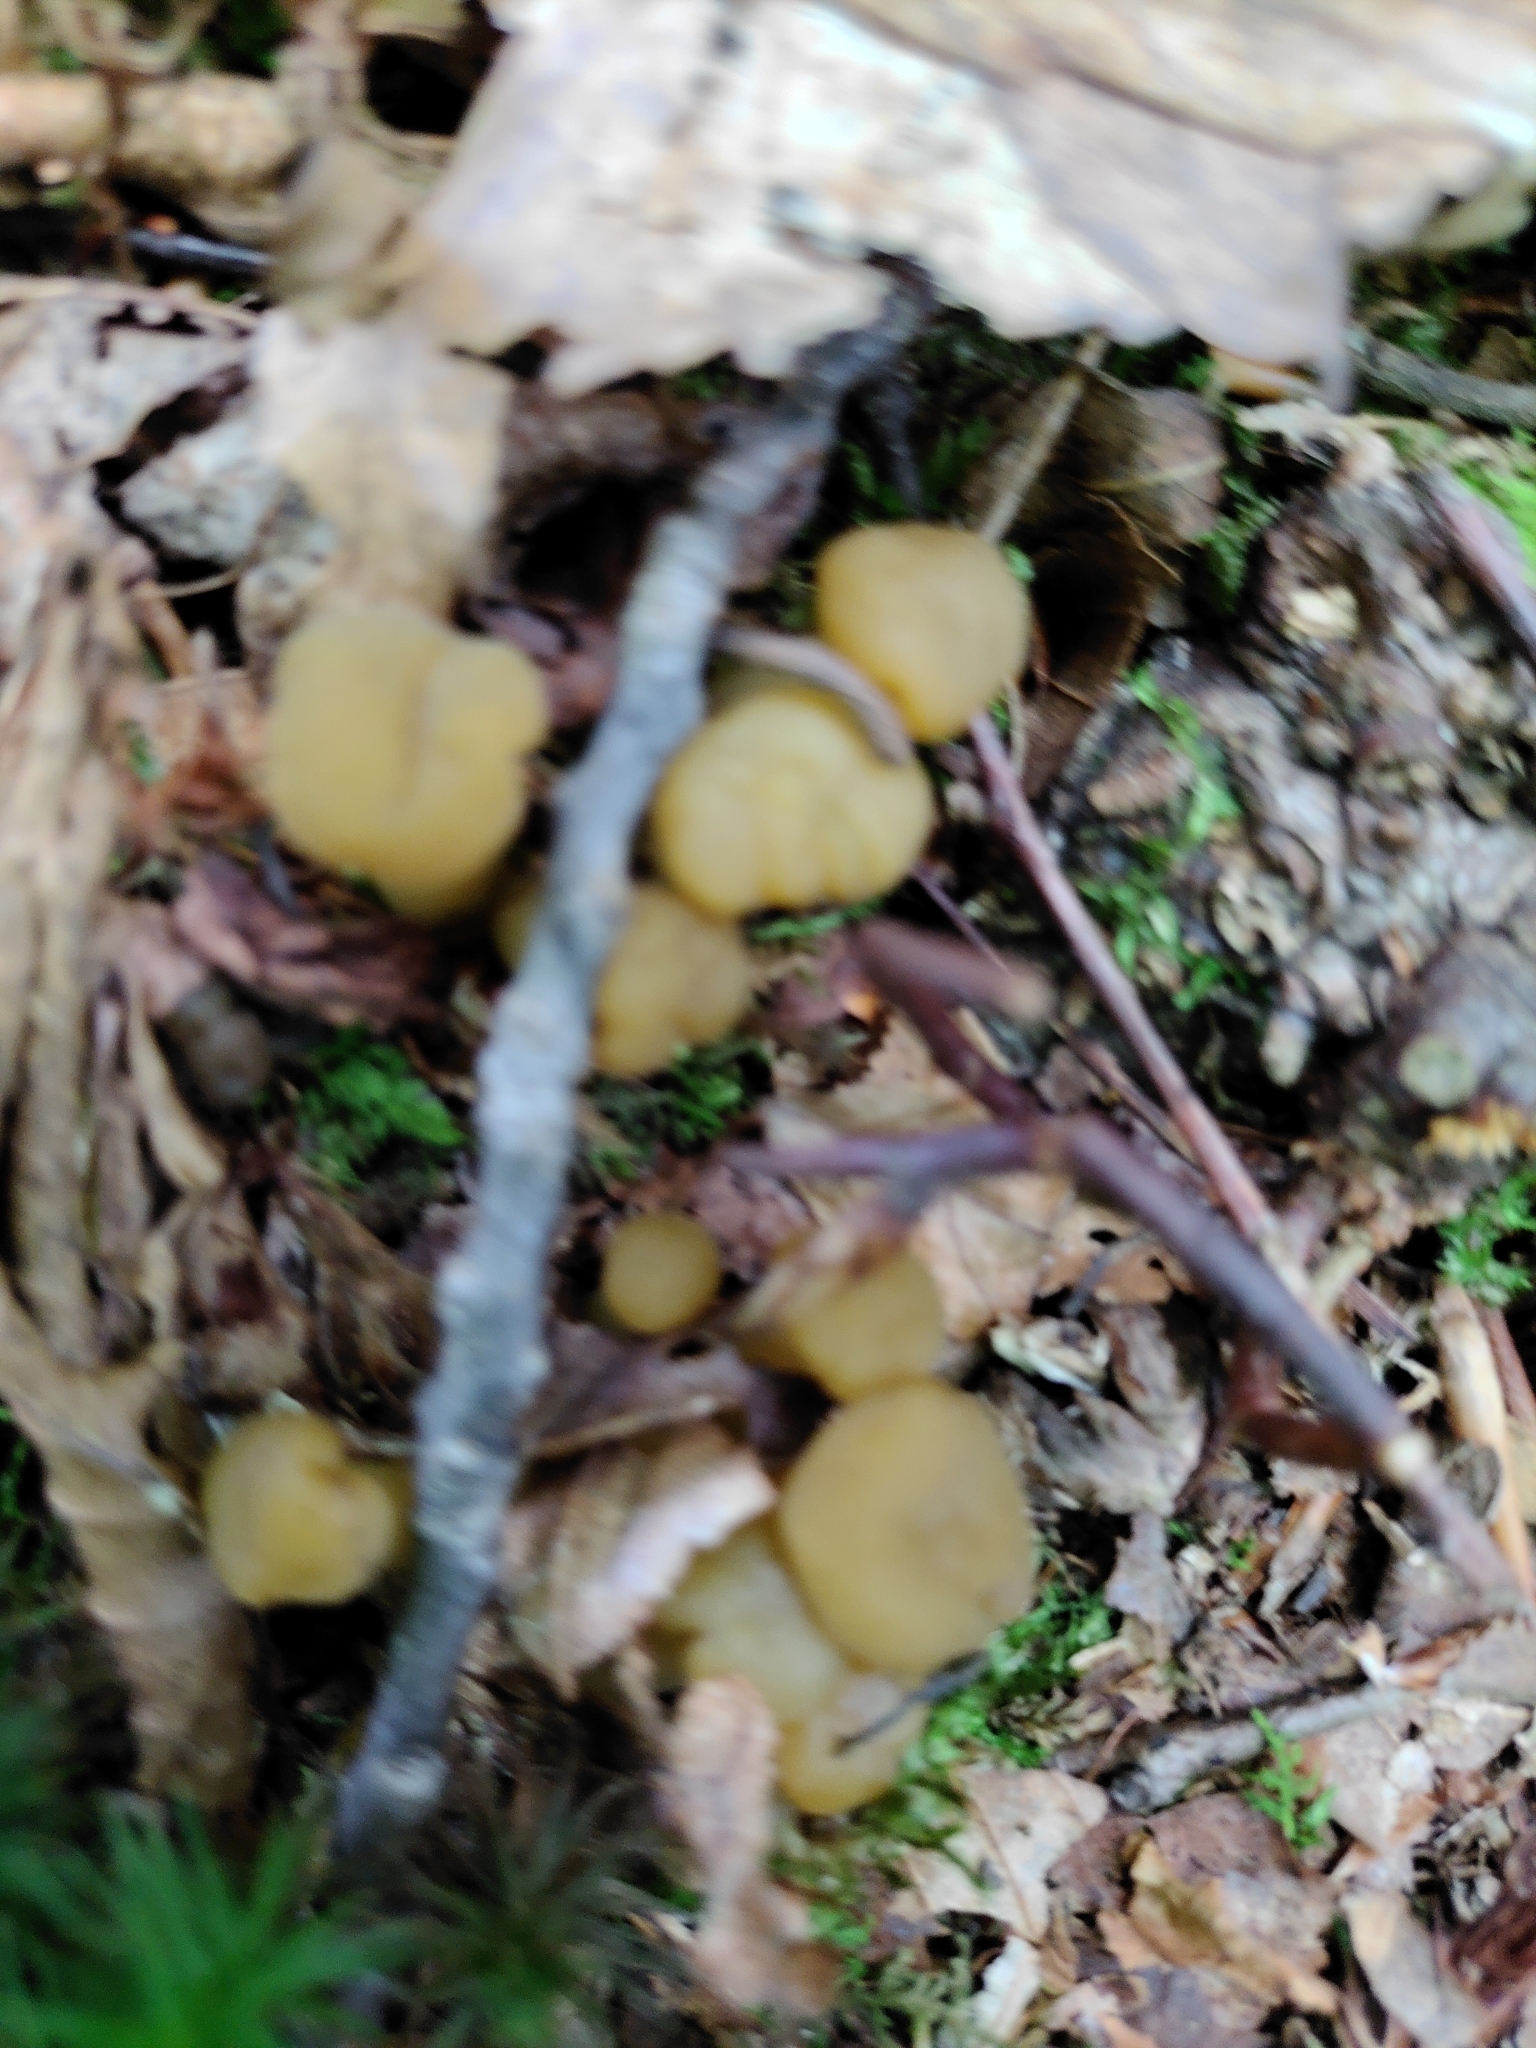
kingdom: Fungi
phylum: Ascomycota
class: Leotiomycetes
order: Leotiales
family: Leotiaceae
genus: Leotia
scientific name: Leotia lubrica
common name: Jellybaby
